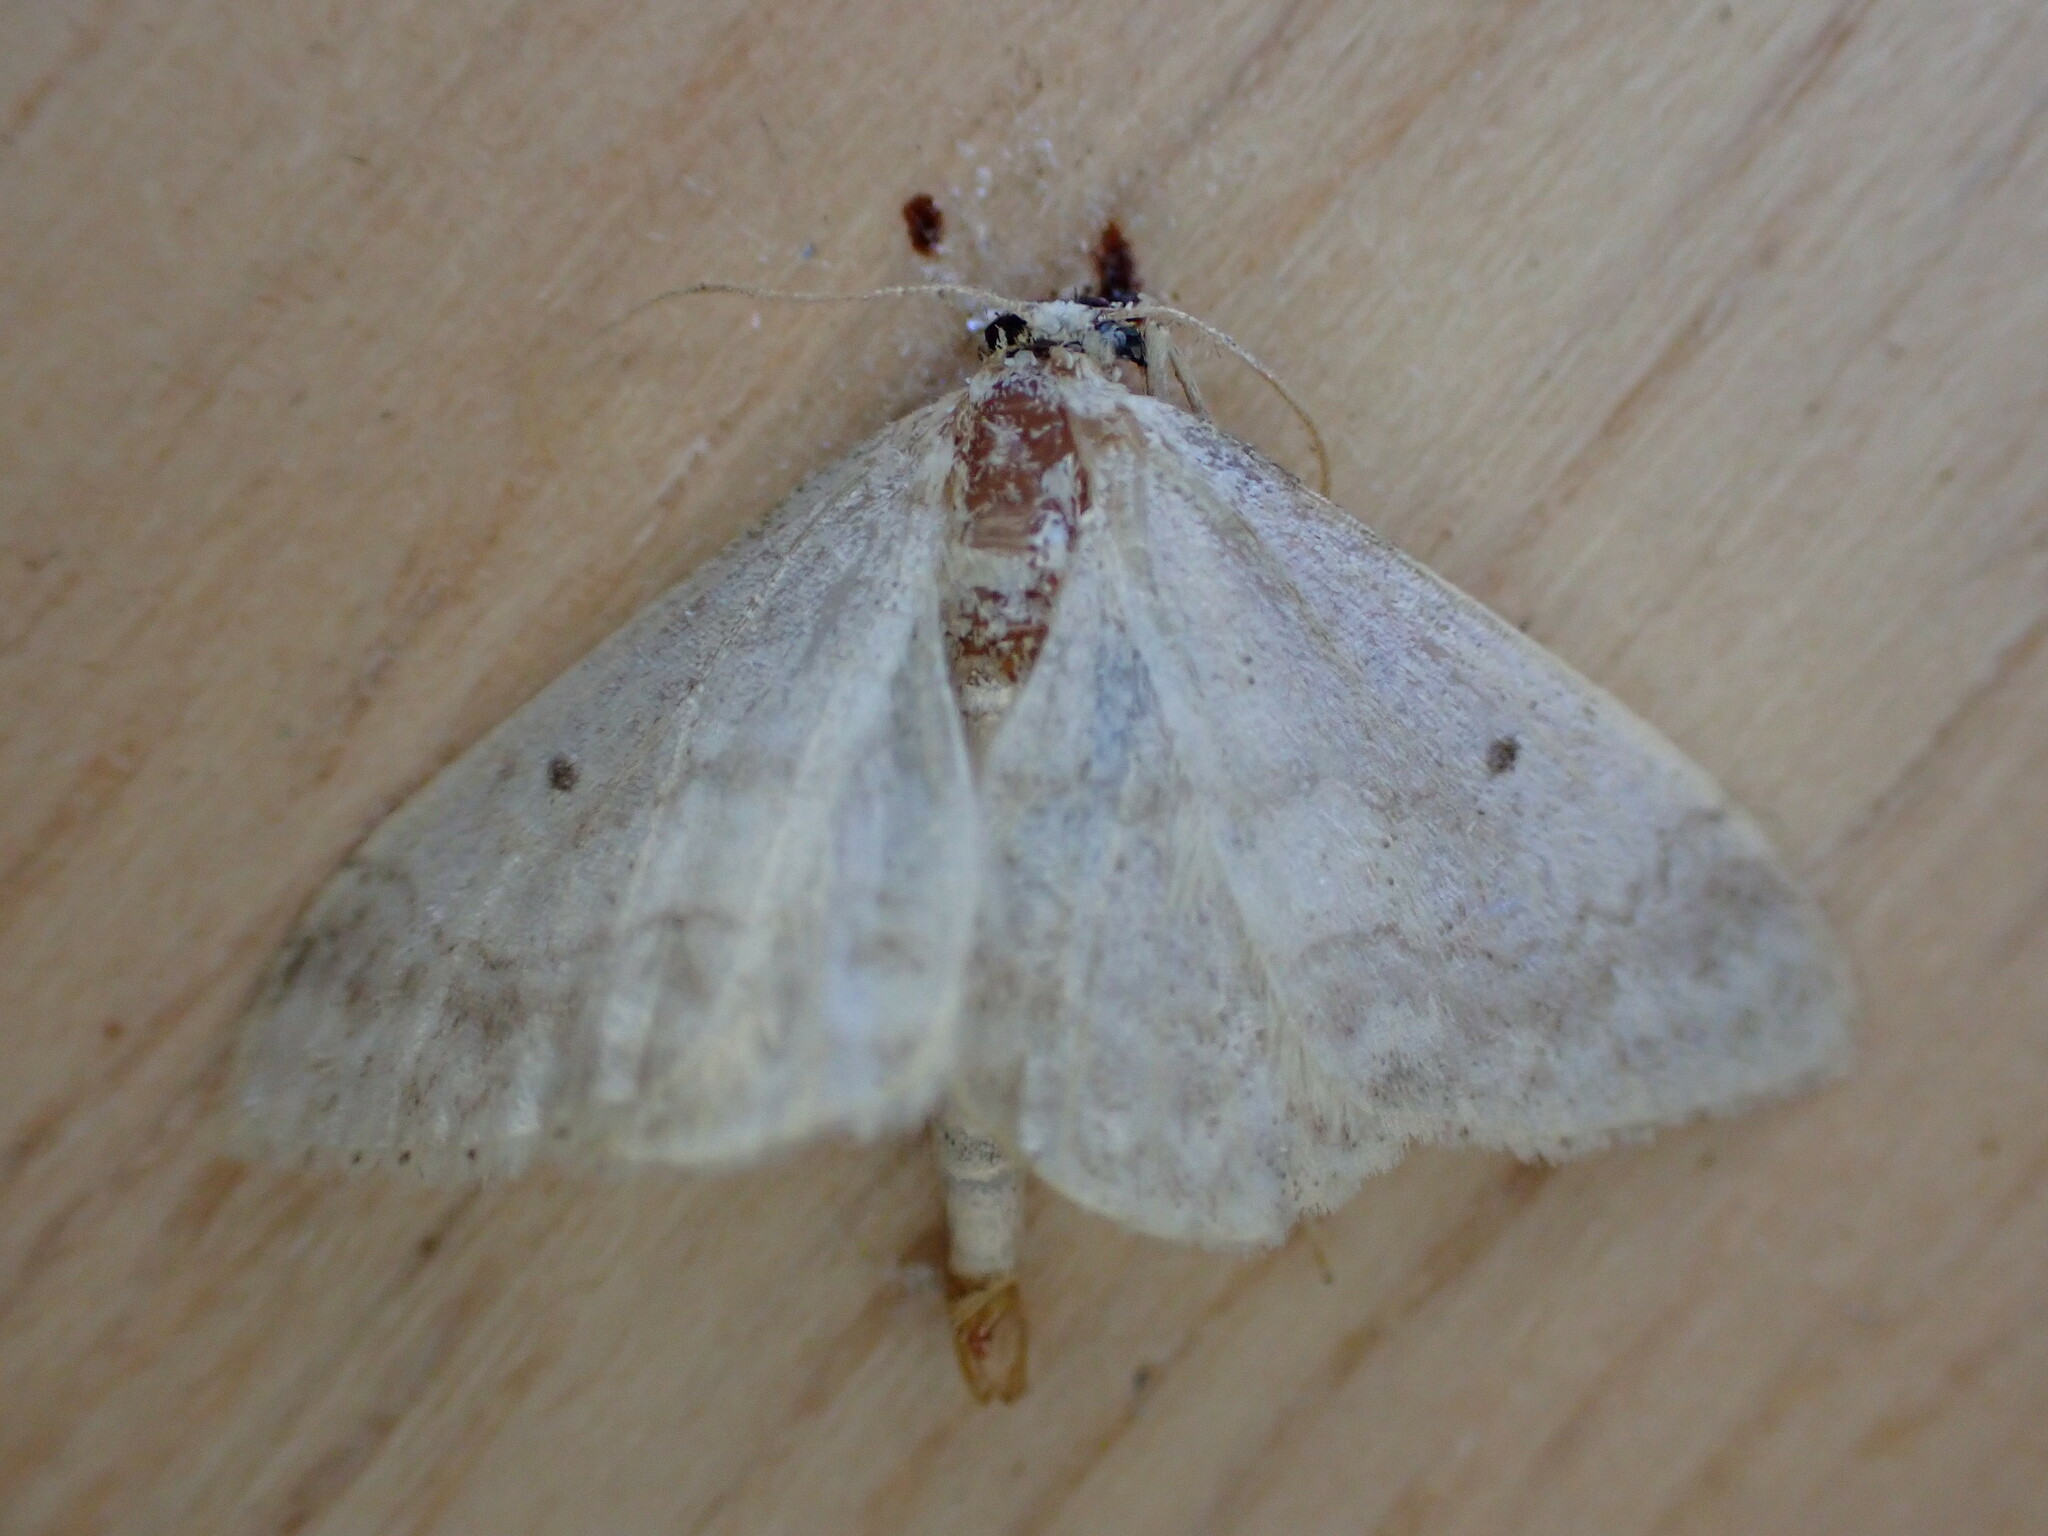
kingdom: Animalia
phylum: Arthropoda
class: Insecta
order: Lepidoptera
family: Geometridae
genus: Idaea
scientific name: Idaea biselata
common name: Small fan-footed wave
